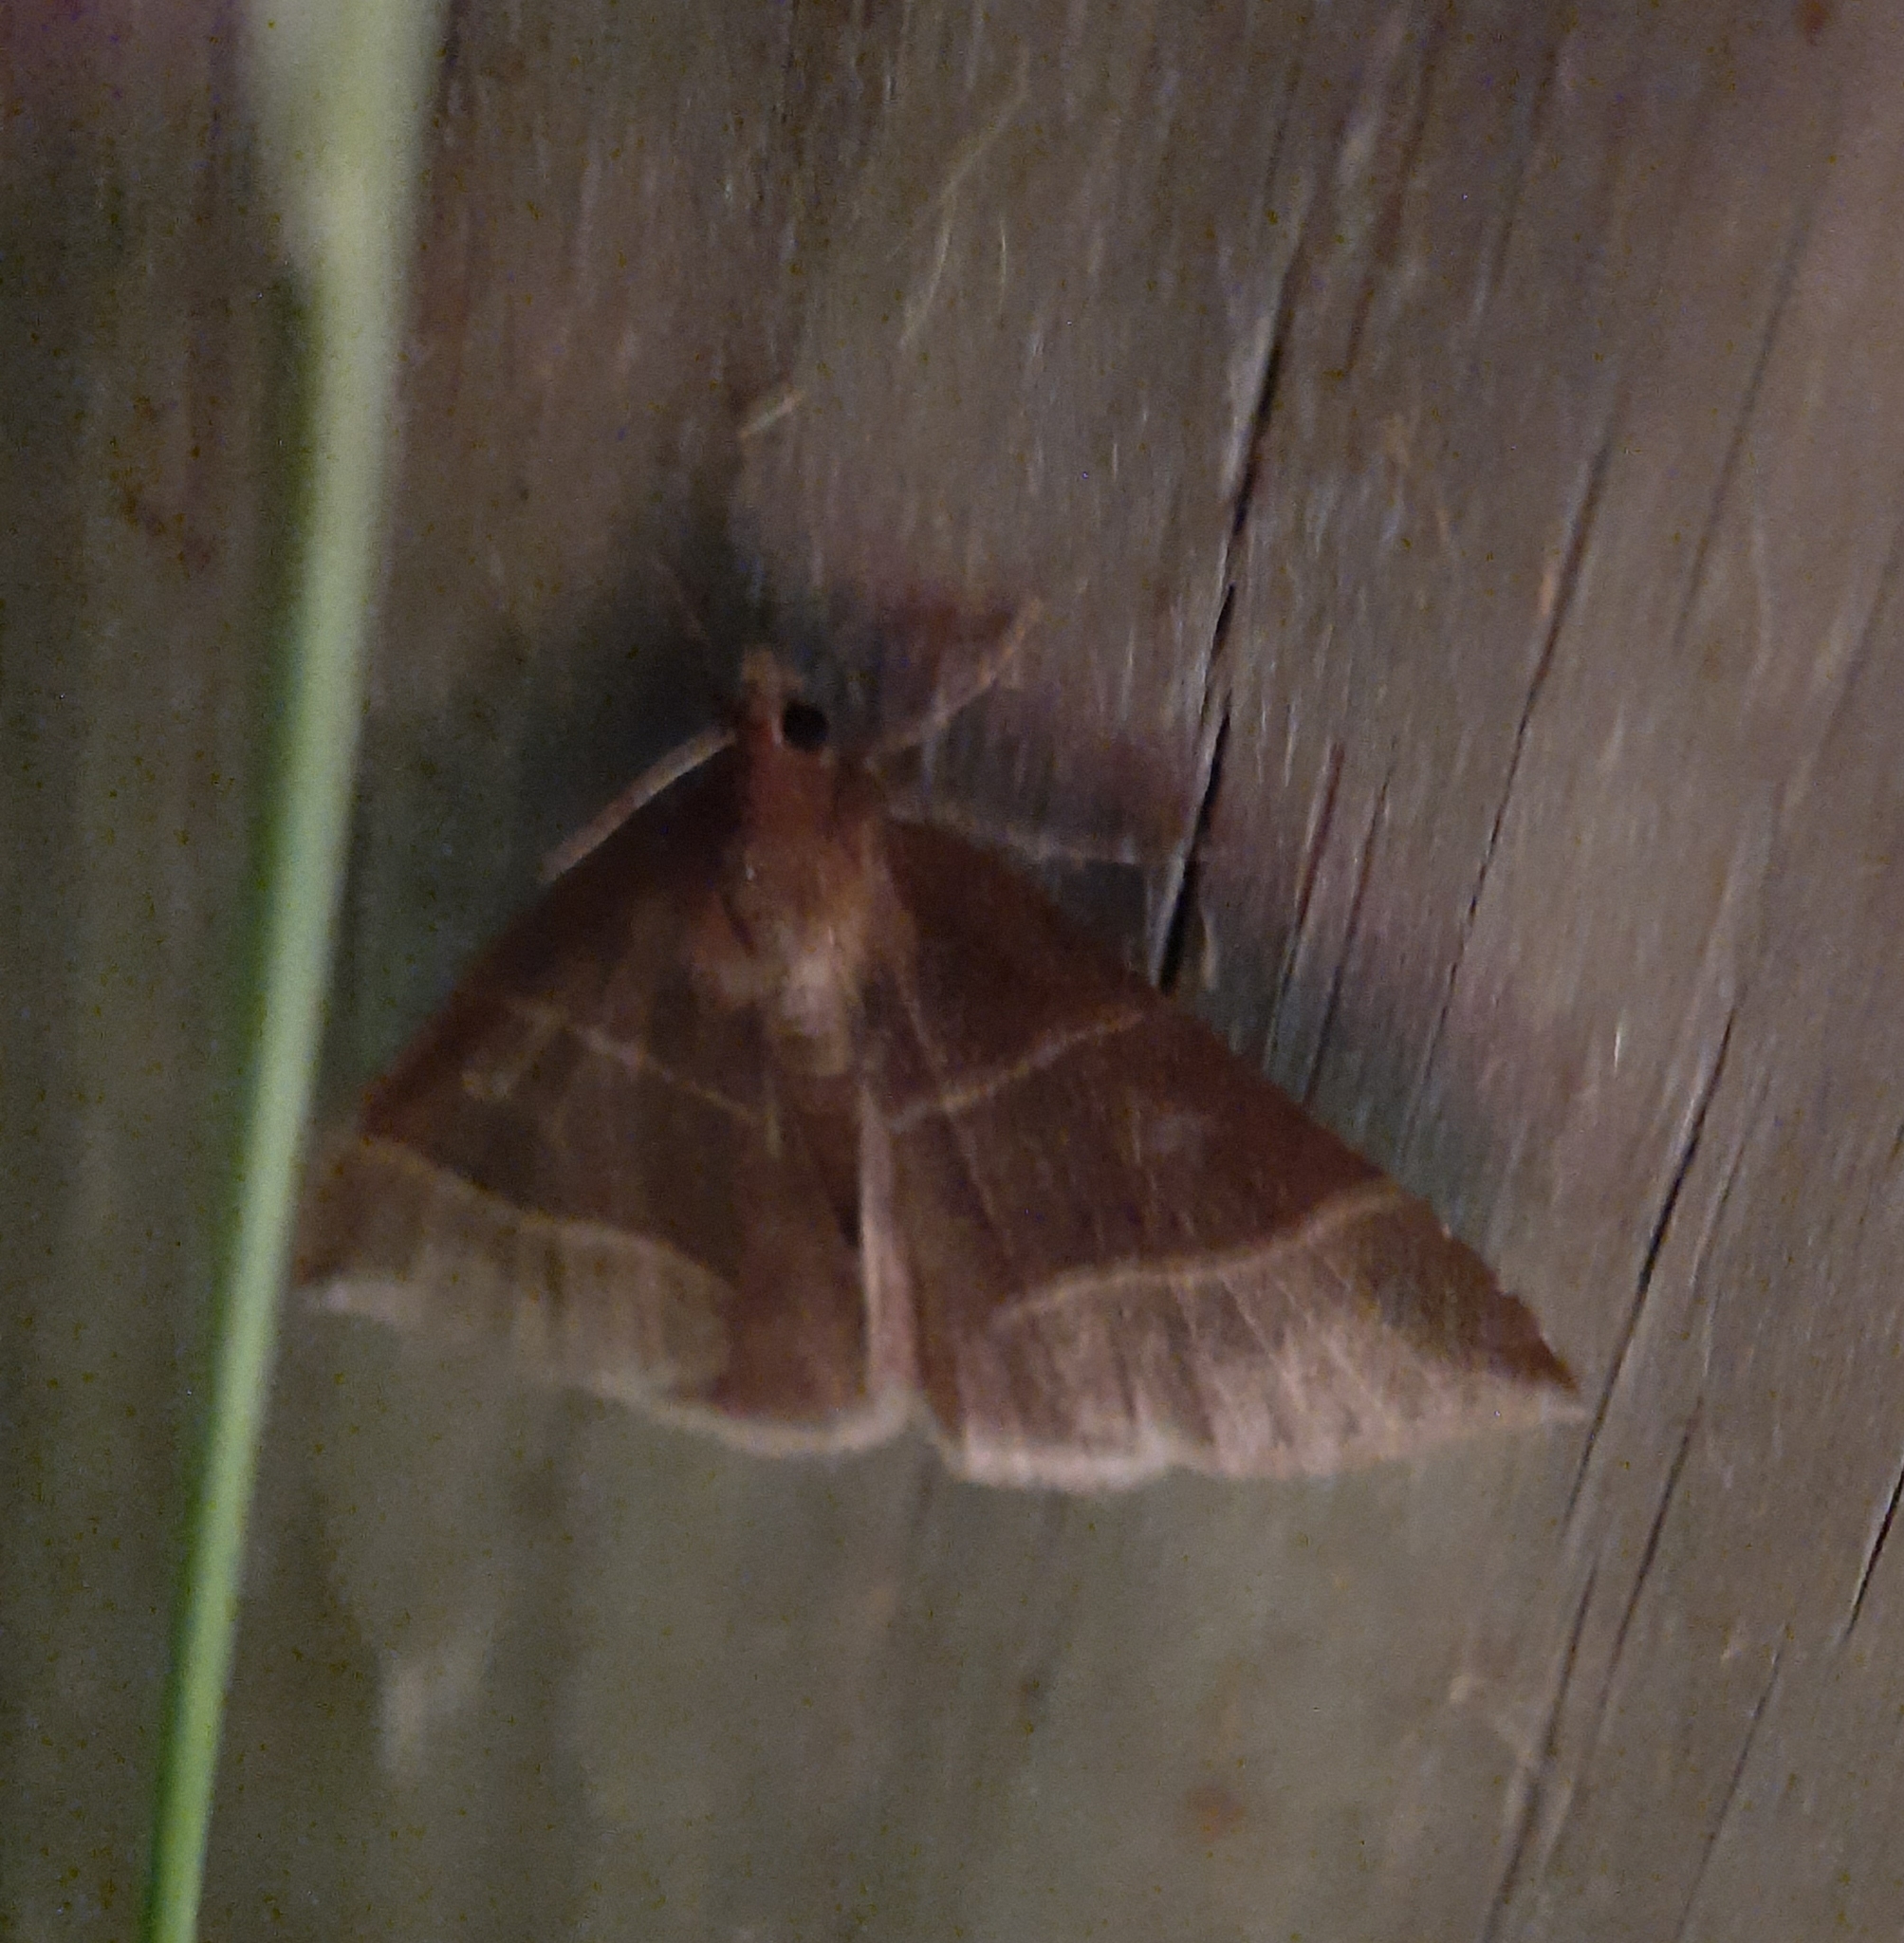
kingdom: Animalia
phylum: Arthropoda
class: Insecta
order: Lepidoptera
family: Erebidae
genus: Parallelia
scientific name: Parallelia bistriaris
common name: Maple looper moth
